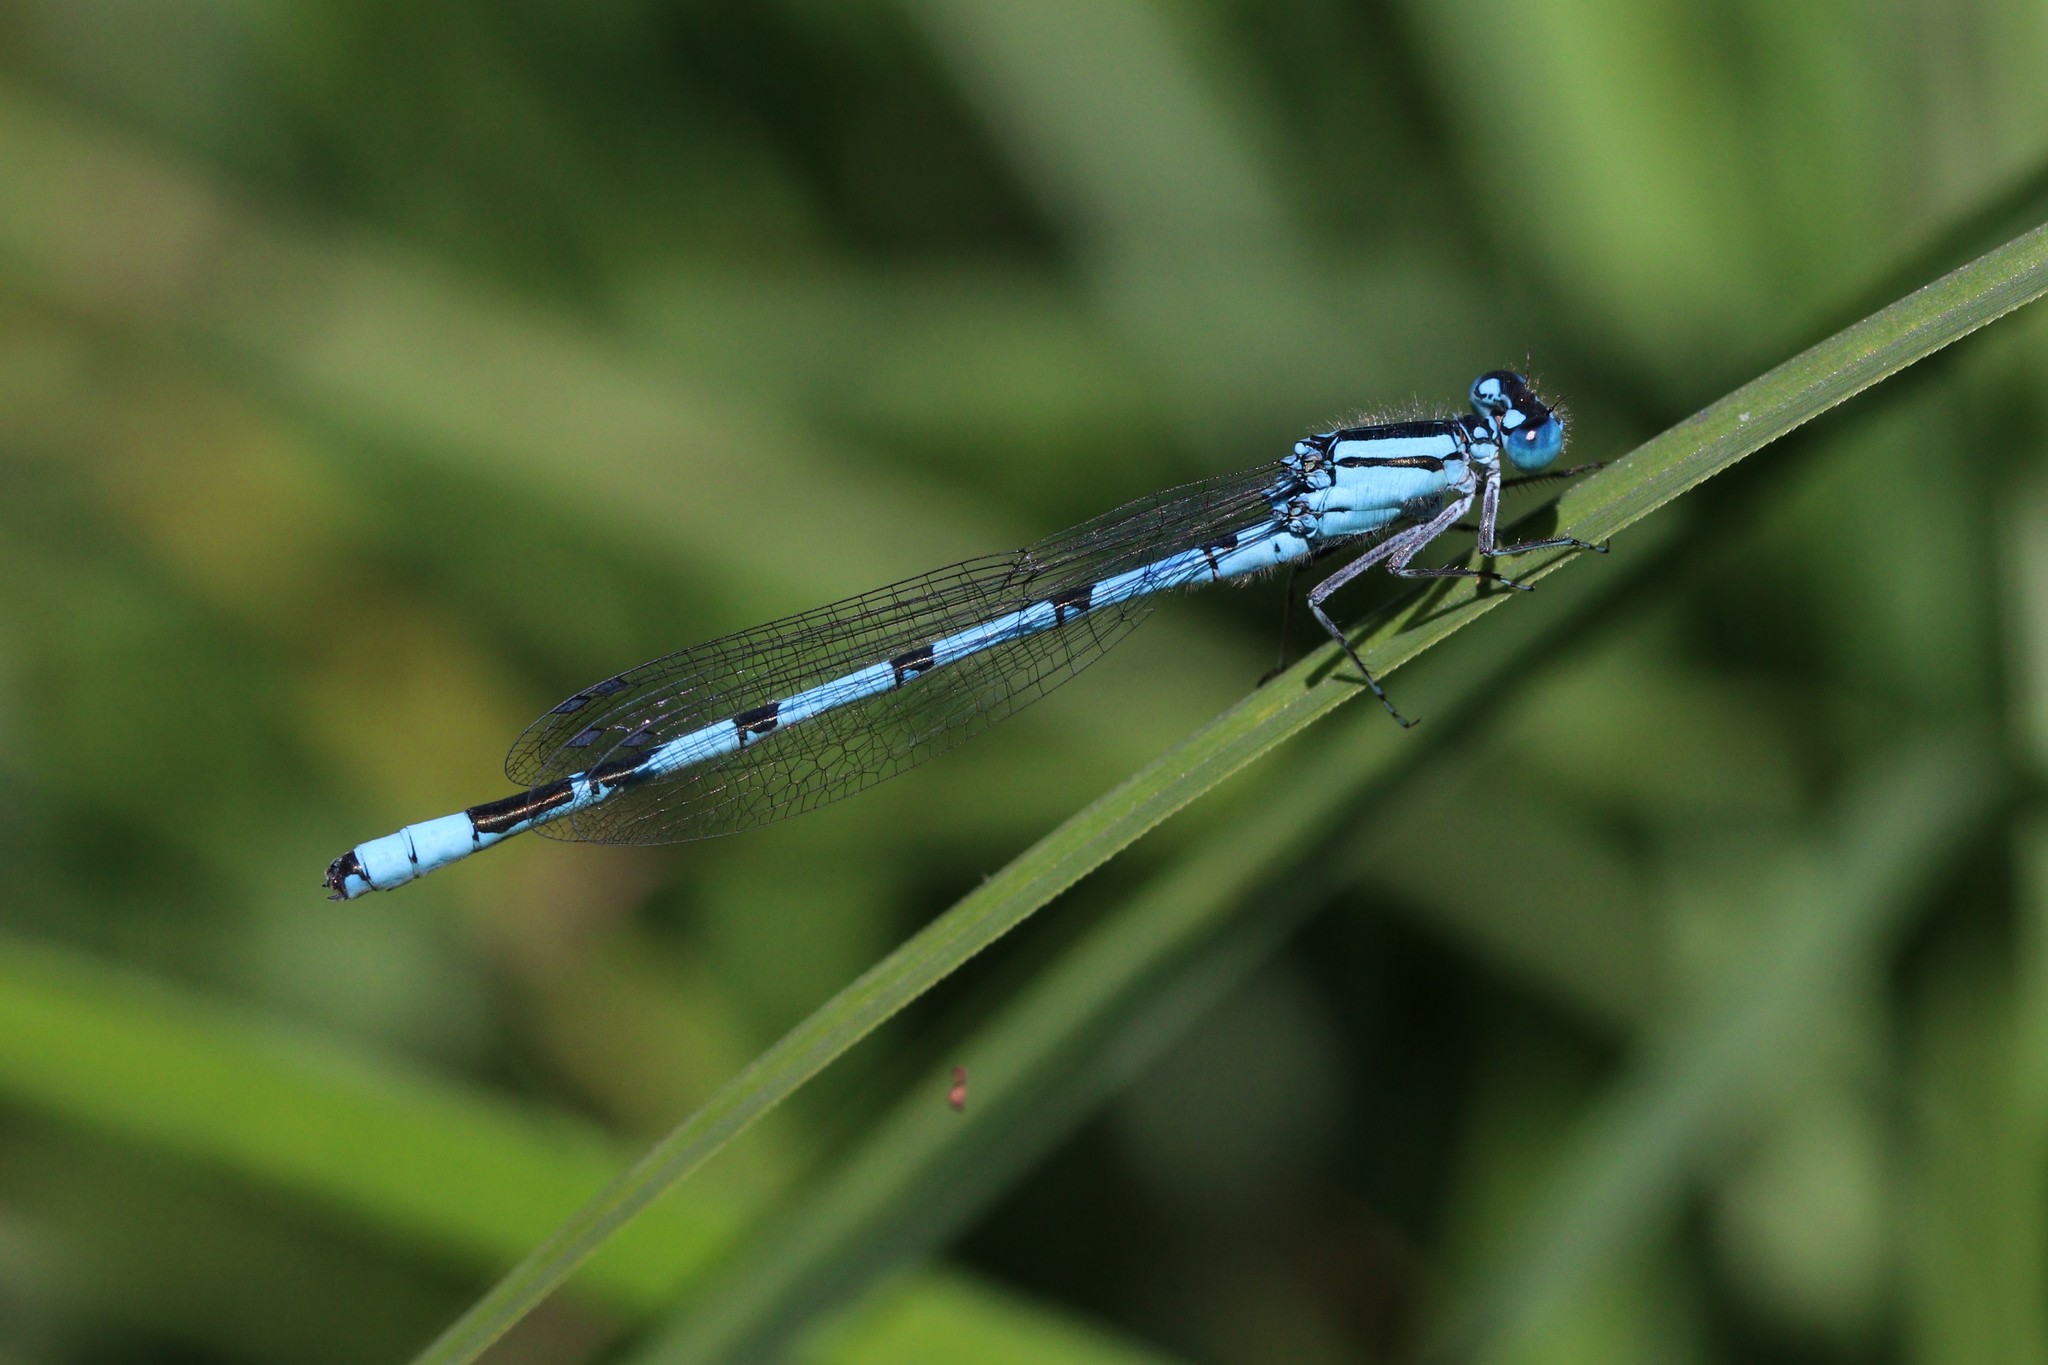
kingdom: Animalia
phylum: Arthropoda
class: Insecta
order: Odonata
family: Coenagrionidae
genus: Enallagma
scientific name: Enallagma cyathigerum
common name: Common blue damselfly
